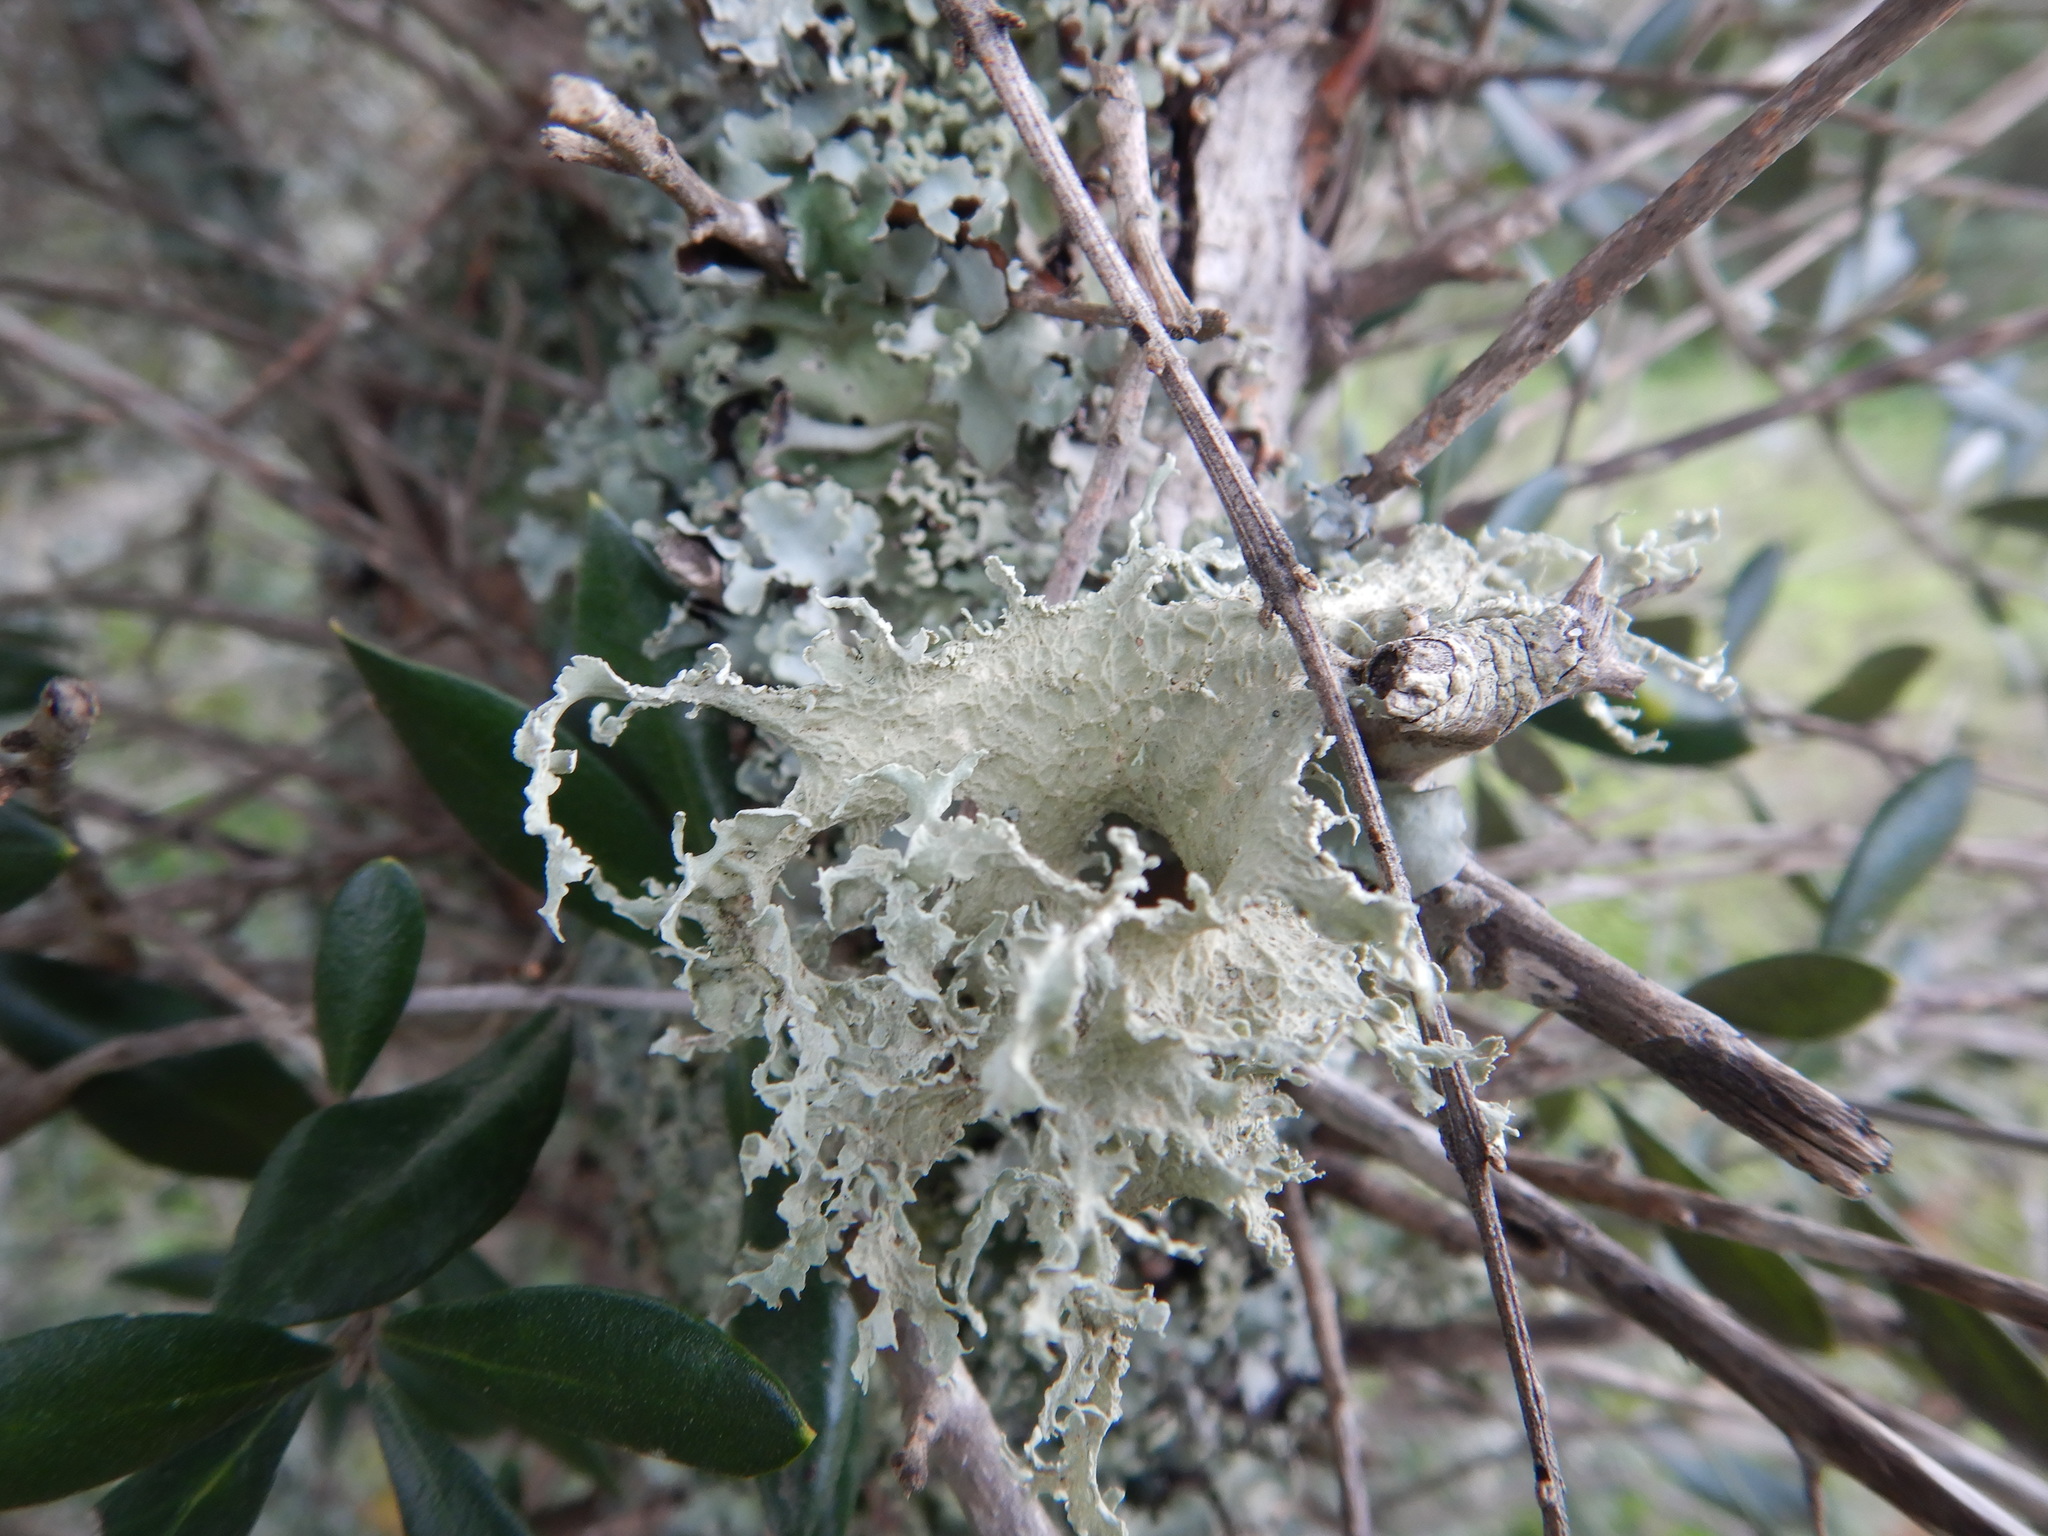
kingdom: Fungi
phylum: Ascomycota
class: Lecanoromycetes
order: Lecanorales
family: Ramalinaceae
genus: Ramalina
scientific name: Ramalina lacera
